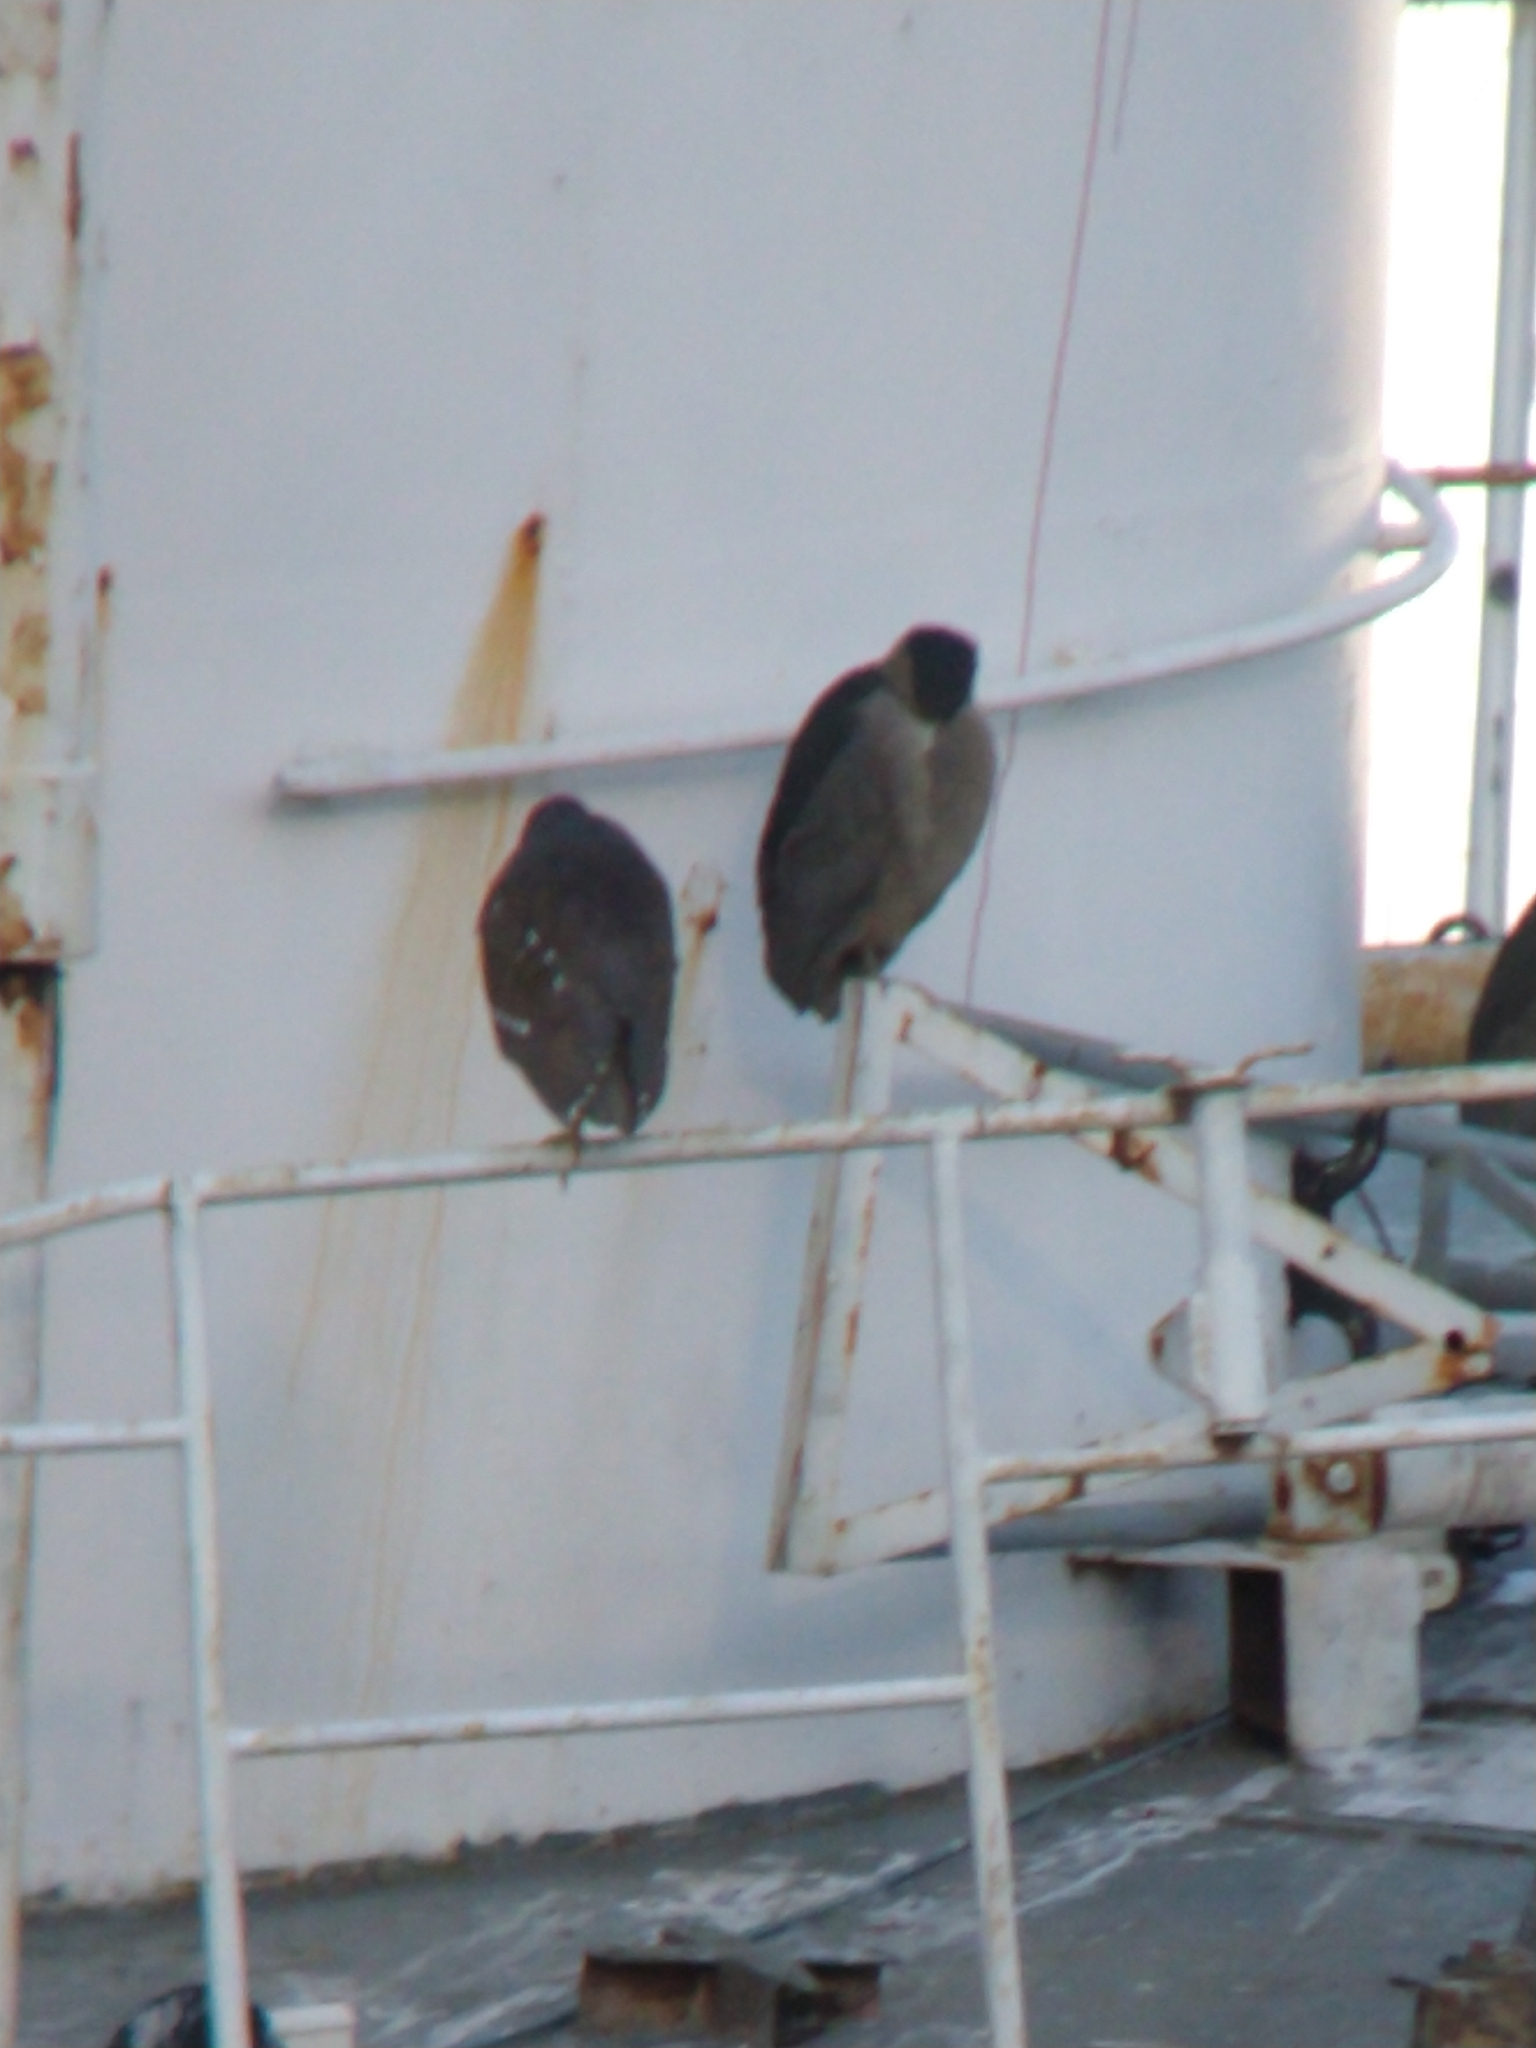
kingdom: Animalia
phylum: Chordata
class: Aves
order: Pelecaniformes
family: Ardeidae
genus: Nycticorax
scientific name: Nycticorax nycticorax
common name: Black-crowned night heron
